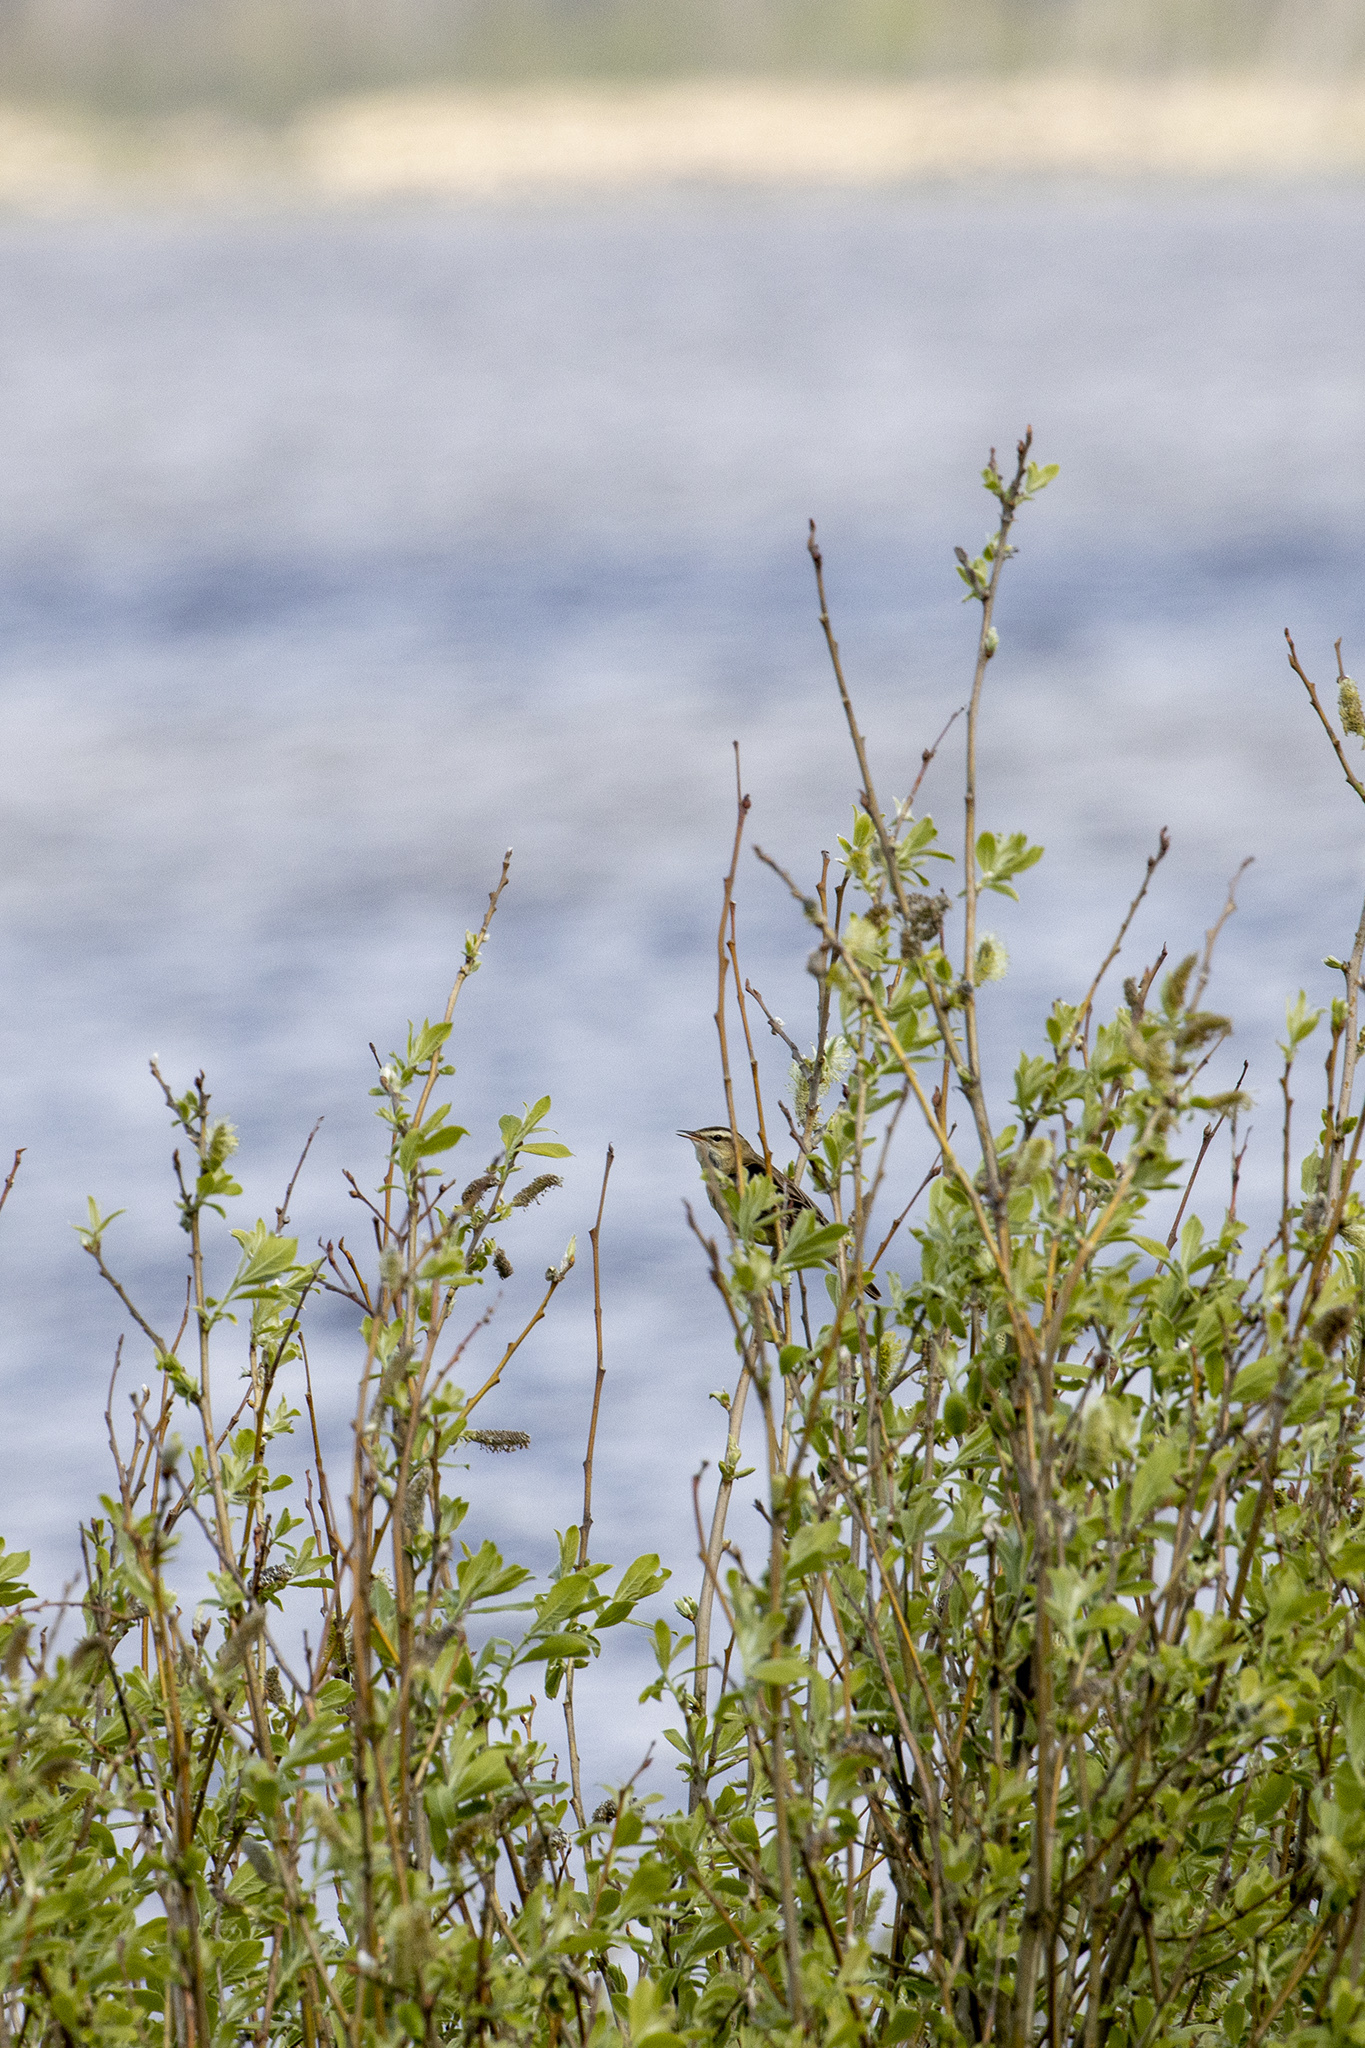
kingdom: Animalia
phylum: Chordata
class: Aves
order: Passeriformes
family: Acrocephalidae
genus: Acrocephalus
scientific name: Acrocephalus schoenobaenus
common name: Sedge warbler
